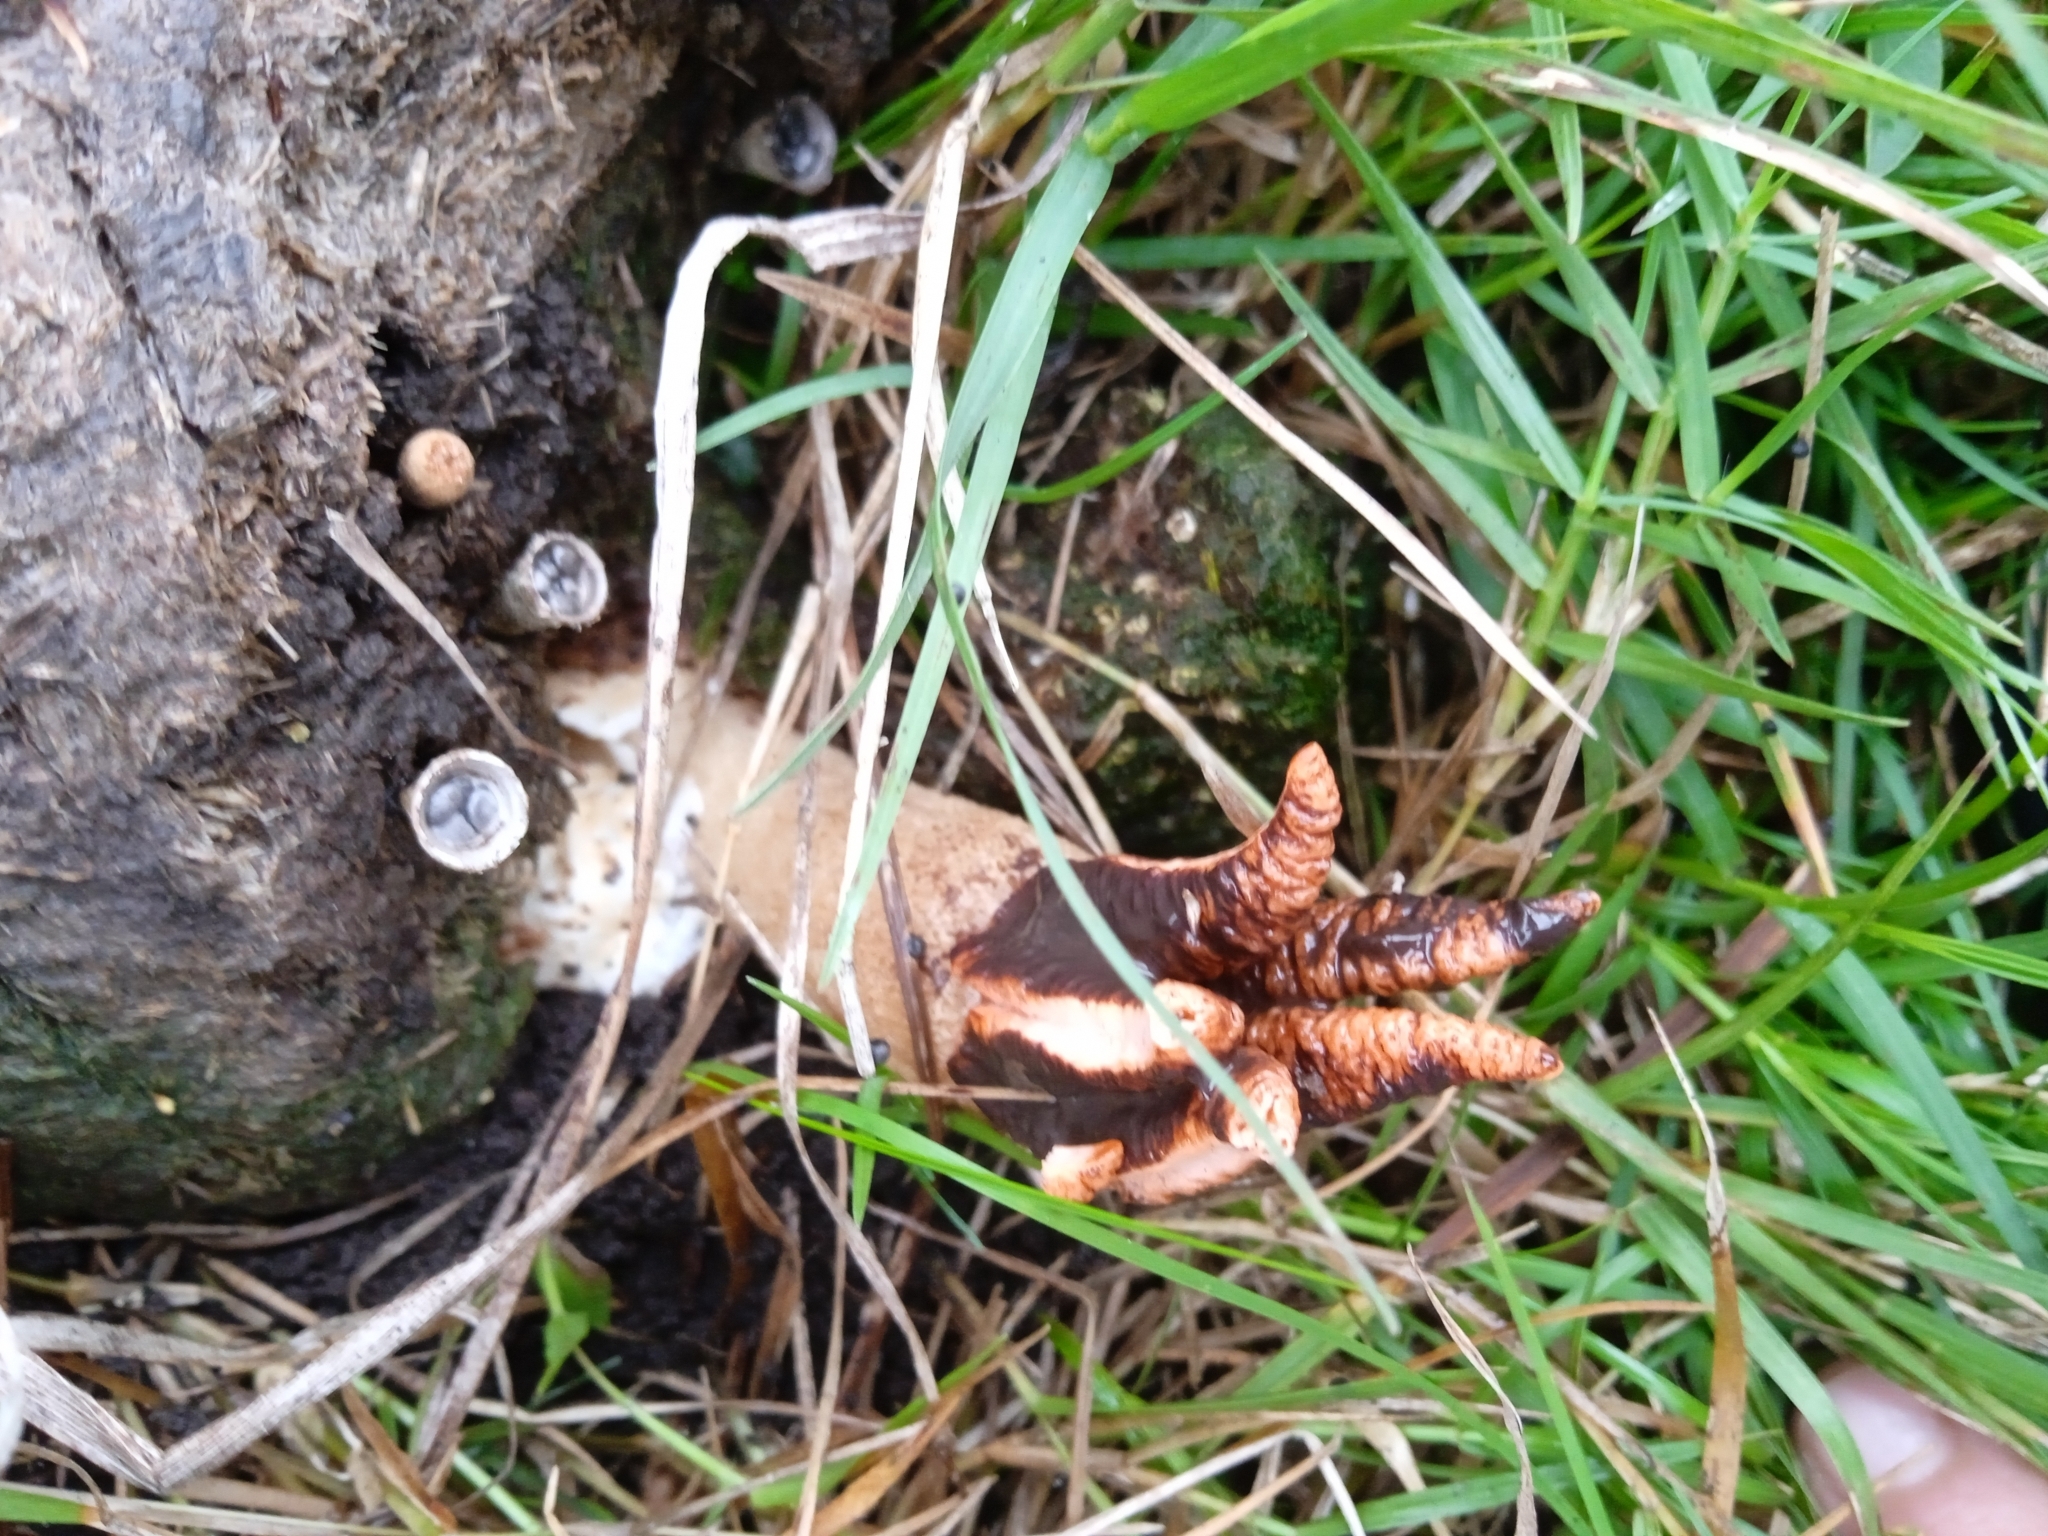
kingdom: Fungi
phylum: Basidiomycota
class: Agaricomycetes
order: Phallales
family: Phallaceae
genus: Lysurus
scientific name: Lysurus cruciatus
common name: Lizard's claw
